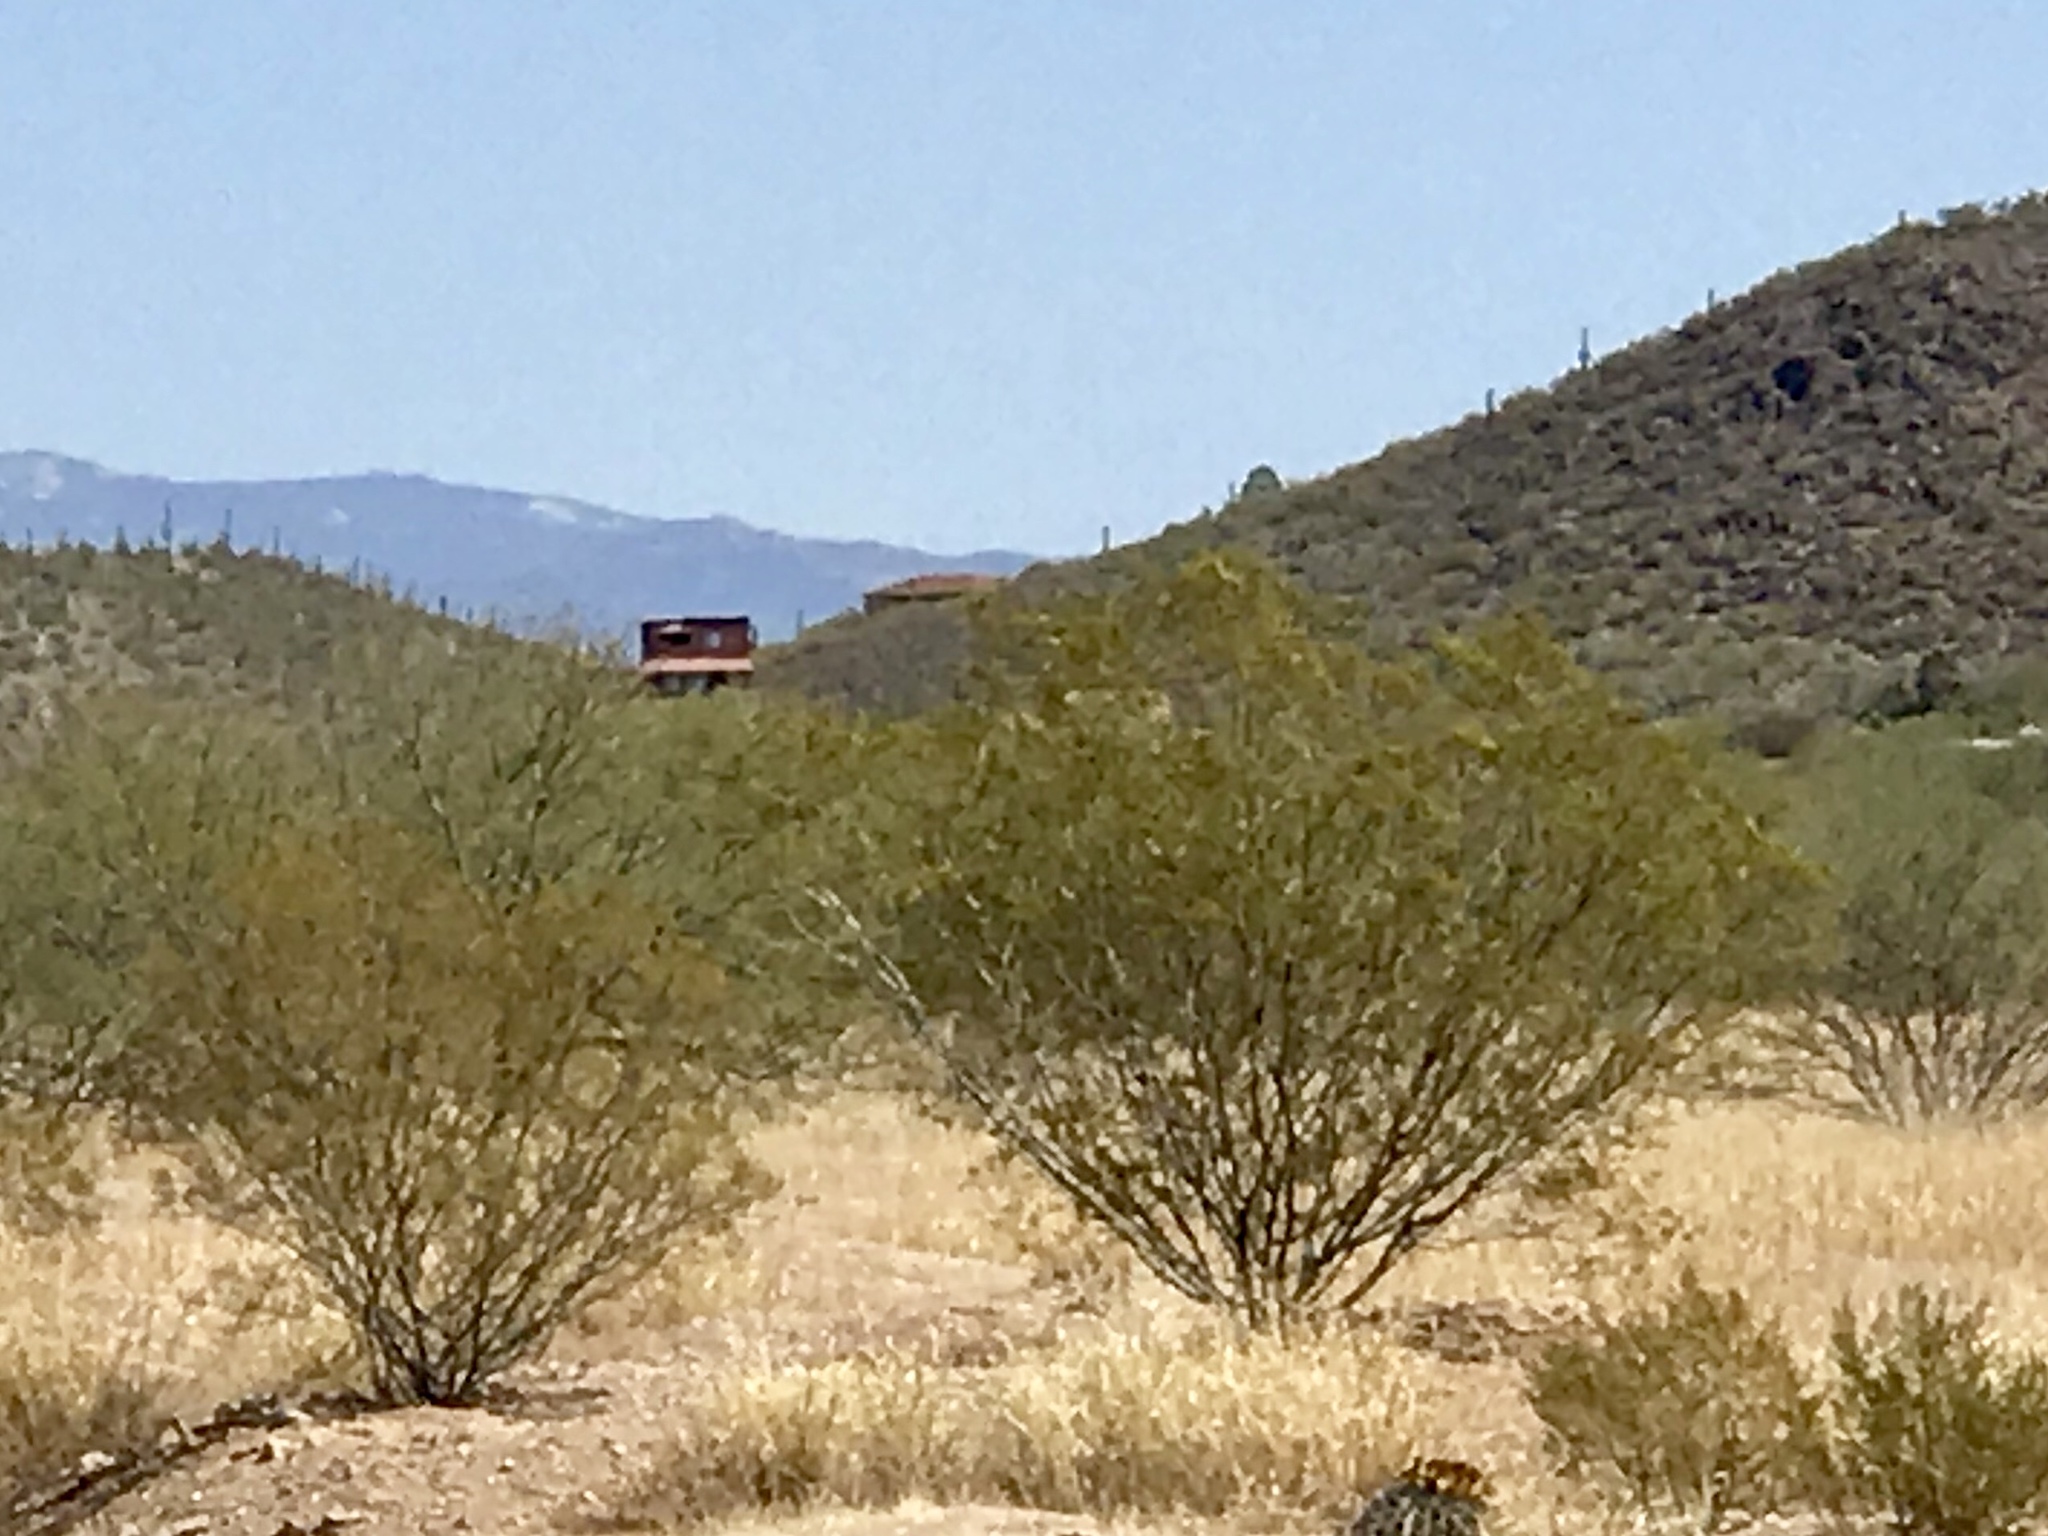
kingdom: Plantae
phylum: Tracheophyta
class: Magnoliopsida
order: Zygophyllales
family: Zygophyllaceae
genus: Larrea
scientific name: Larrea tridentata
